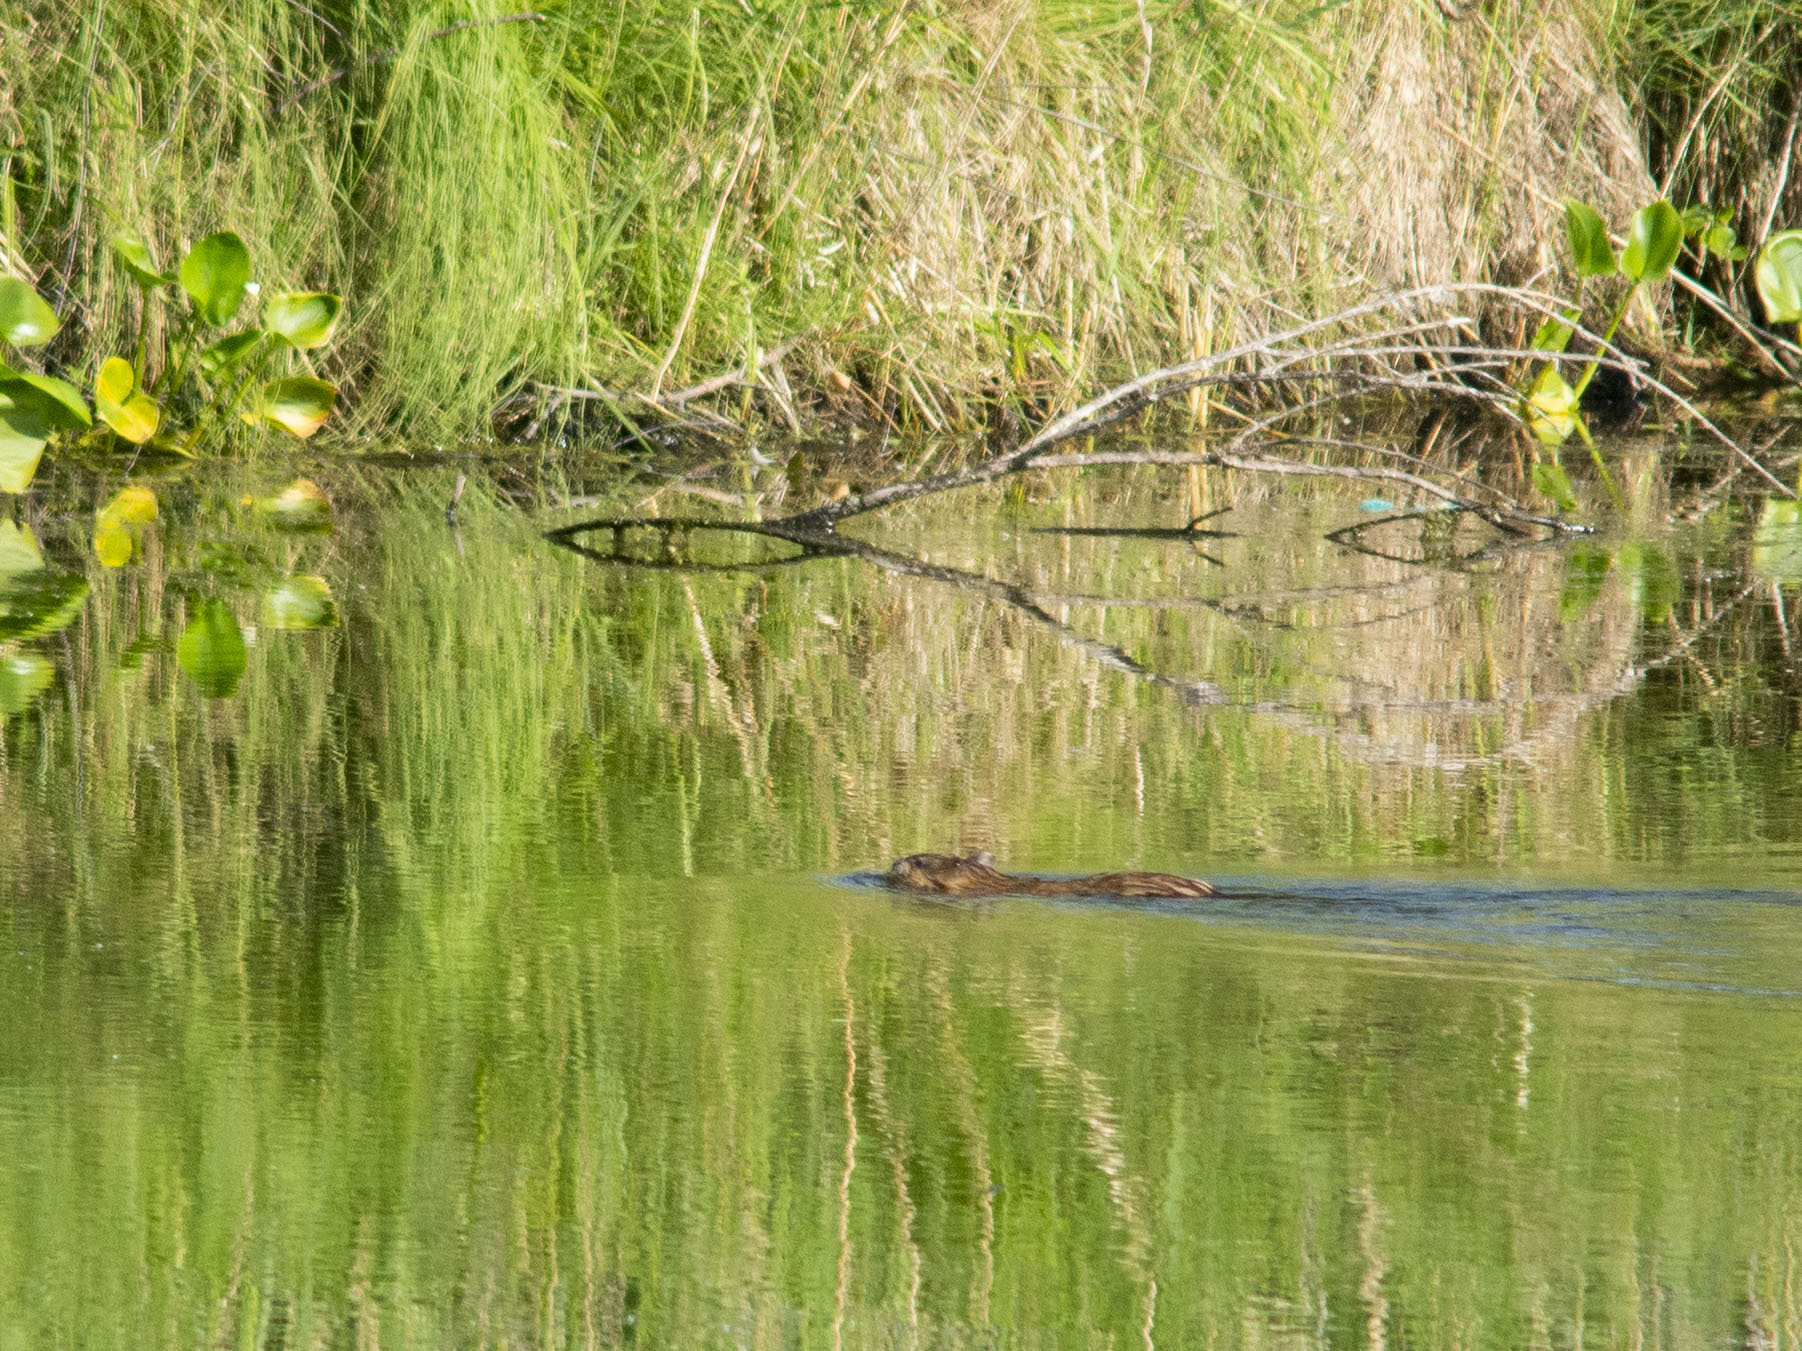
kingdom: Animalia
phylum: Chordata
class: Mammalia
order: Rodentia
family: Cricetidae
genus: Ondatra
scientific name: Ondatra zibethicus
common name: Muskrat
